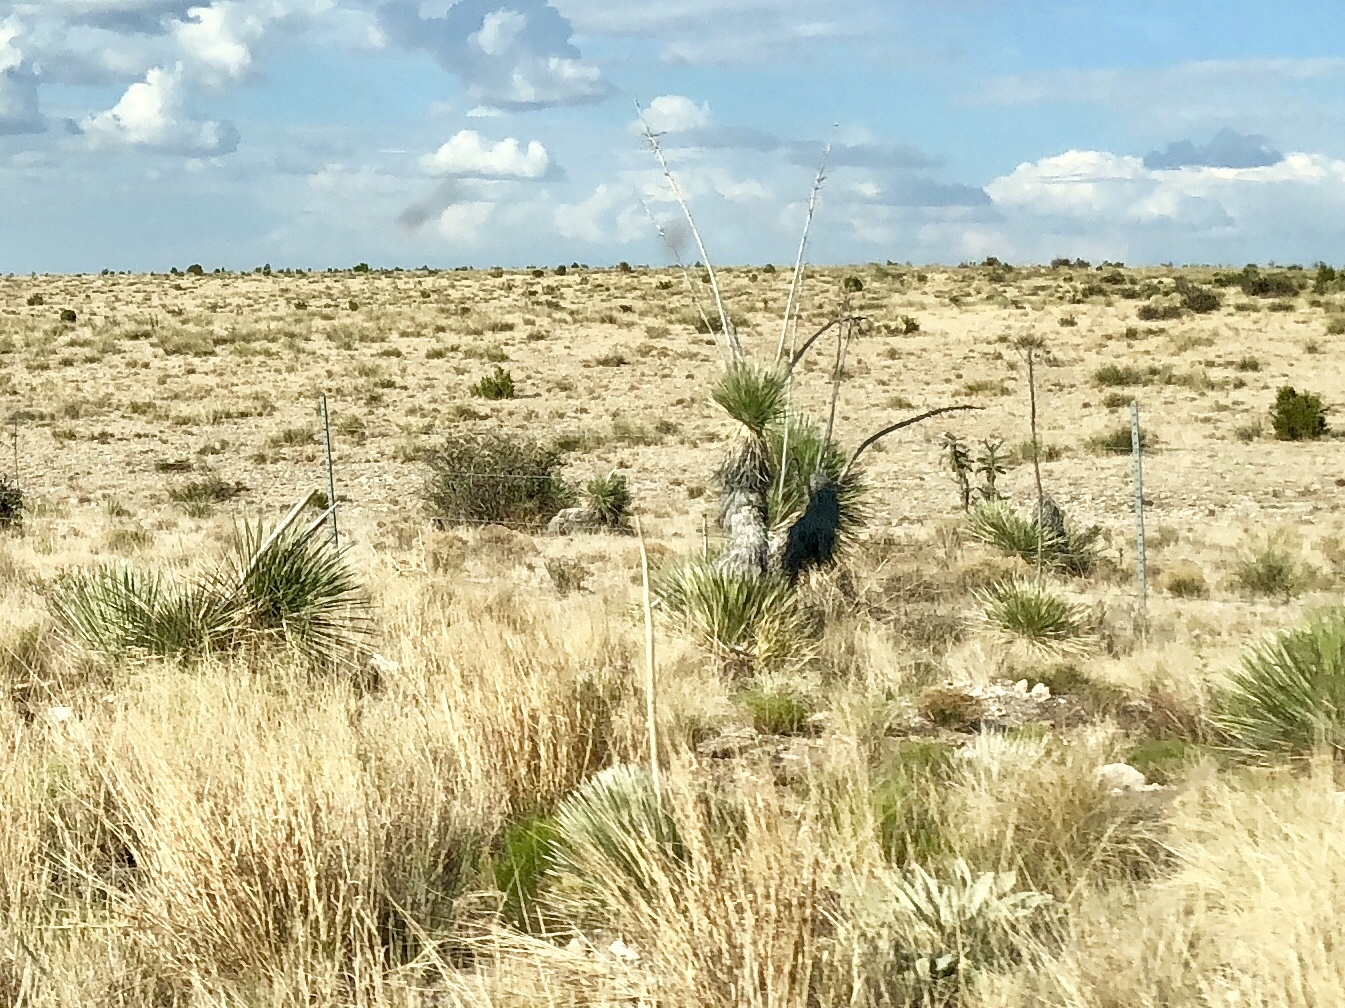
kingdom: Plantae
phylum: Tracheophyta
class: Liliopsida
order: Asparagales
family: Asparagaceae
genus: Yucca
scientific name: Yucca elata
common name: Palmella
